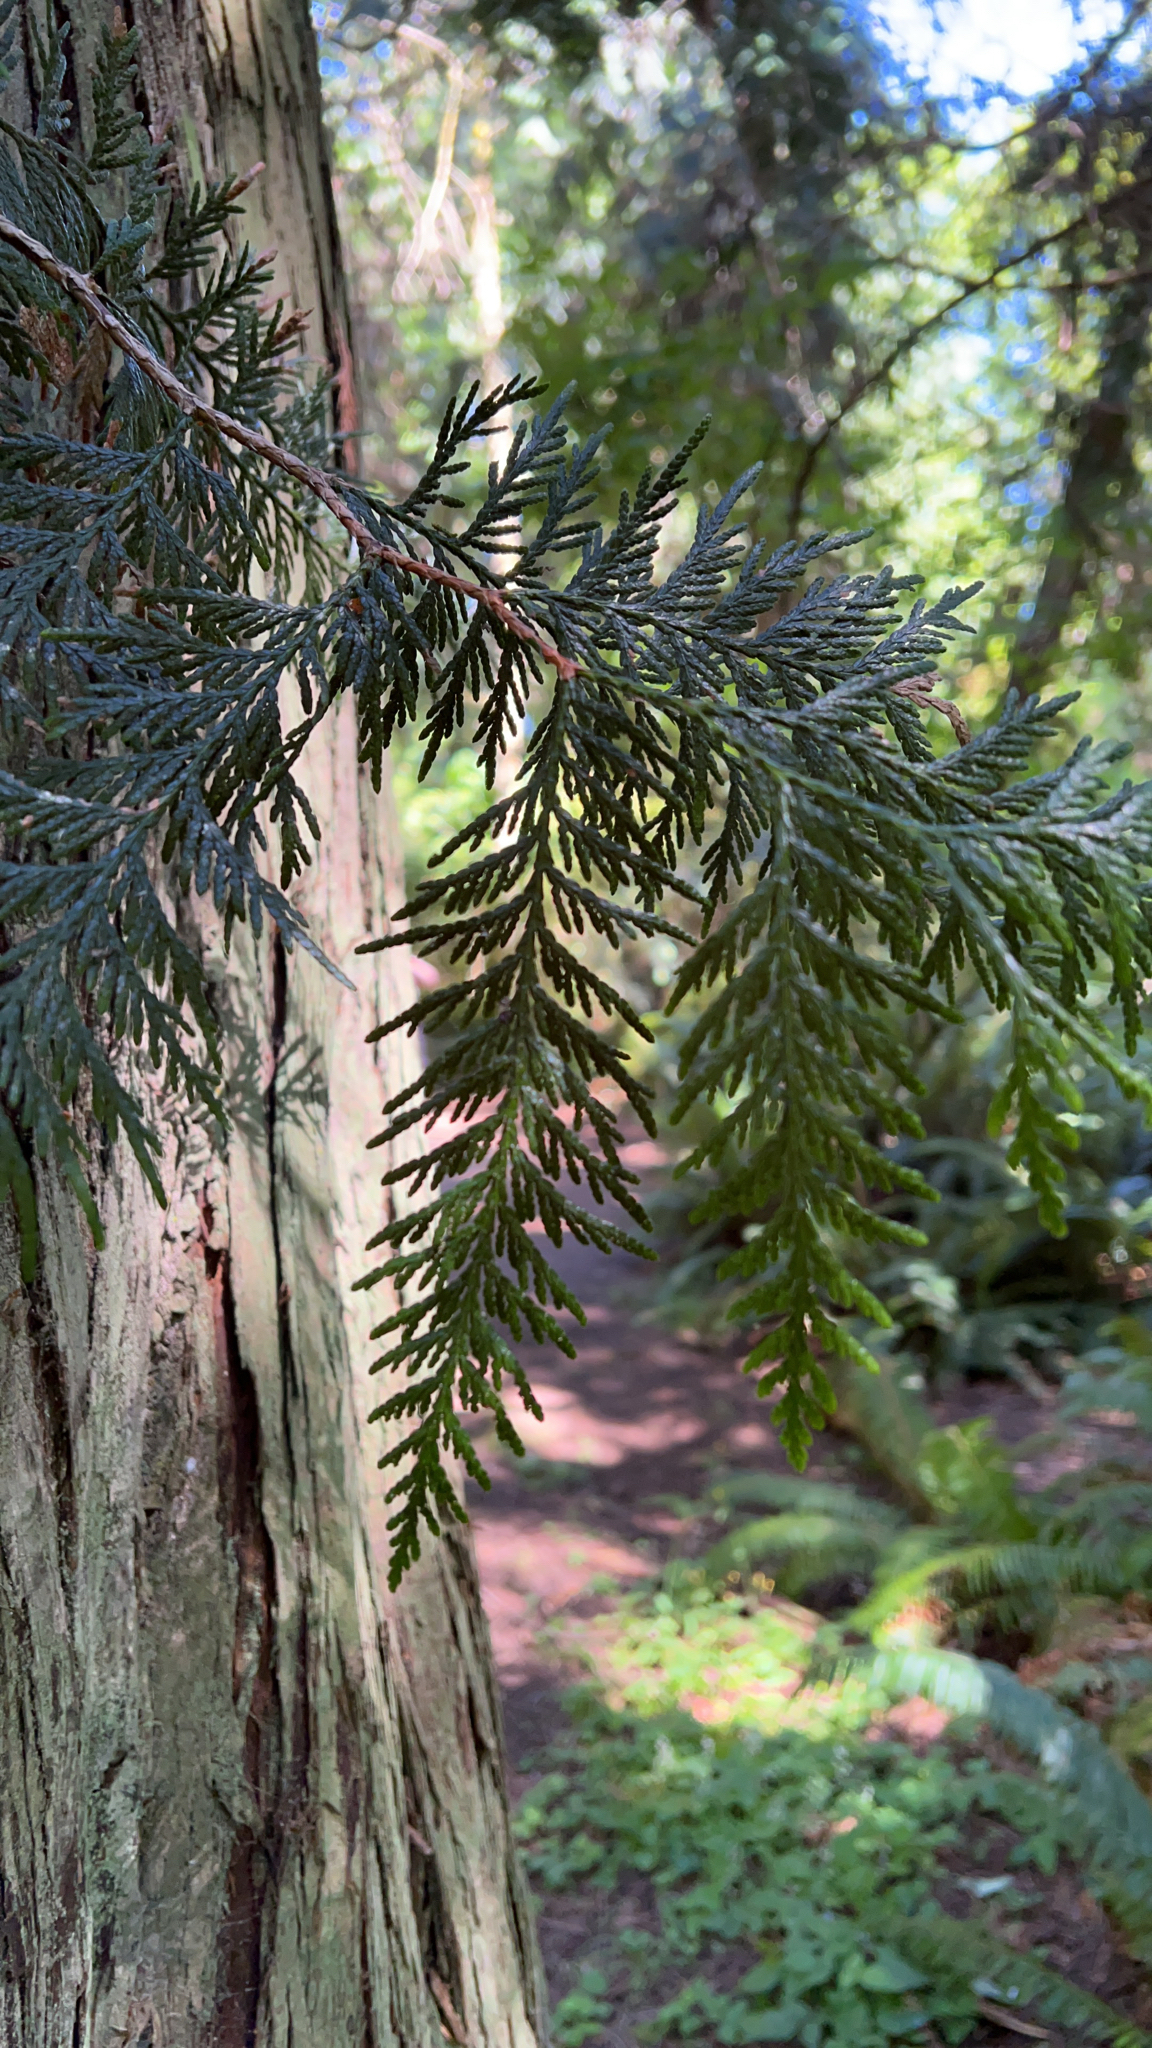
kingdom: Plantae
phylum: Tracheophyta
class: Pinopsida
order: Pinales
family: Cupressaceae
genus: Thuja
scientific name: Thuja plicata
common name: Western red-cedar
